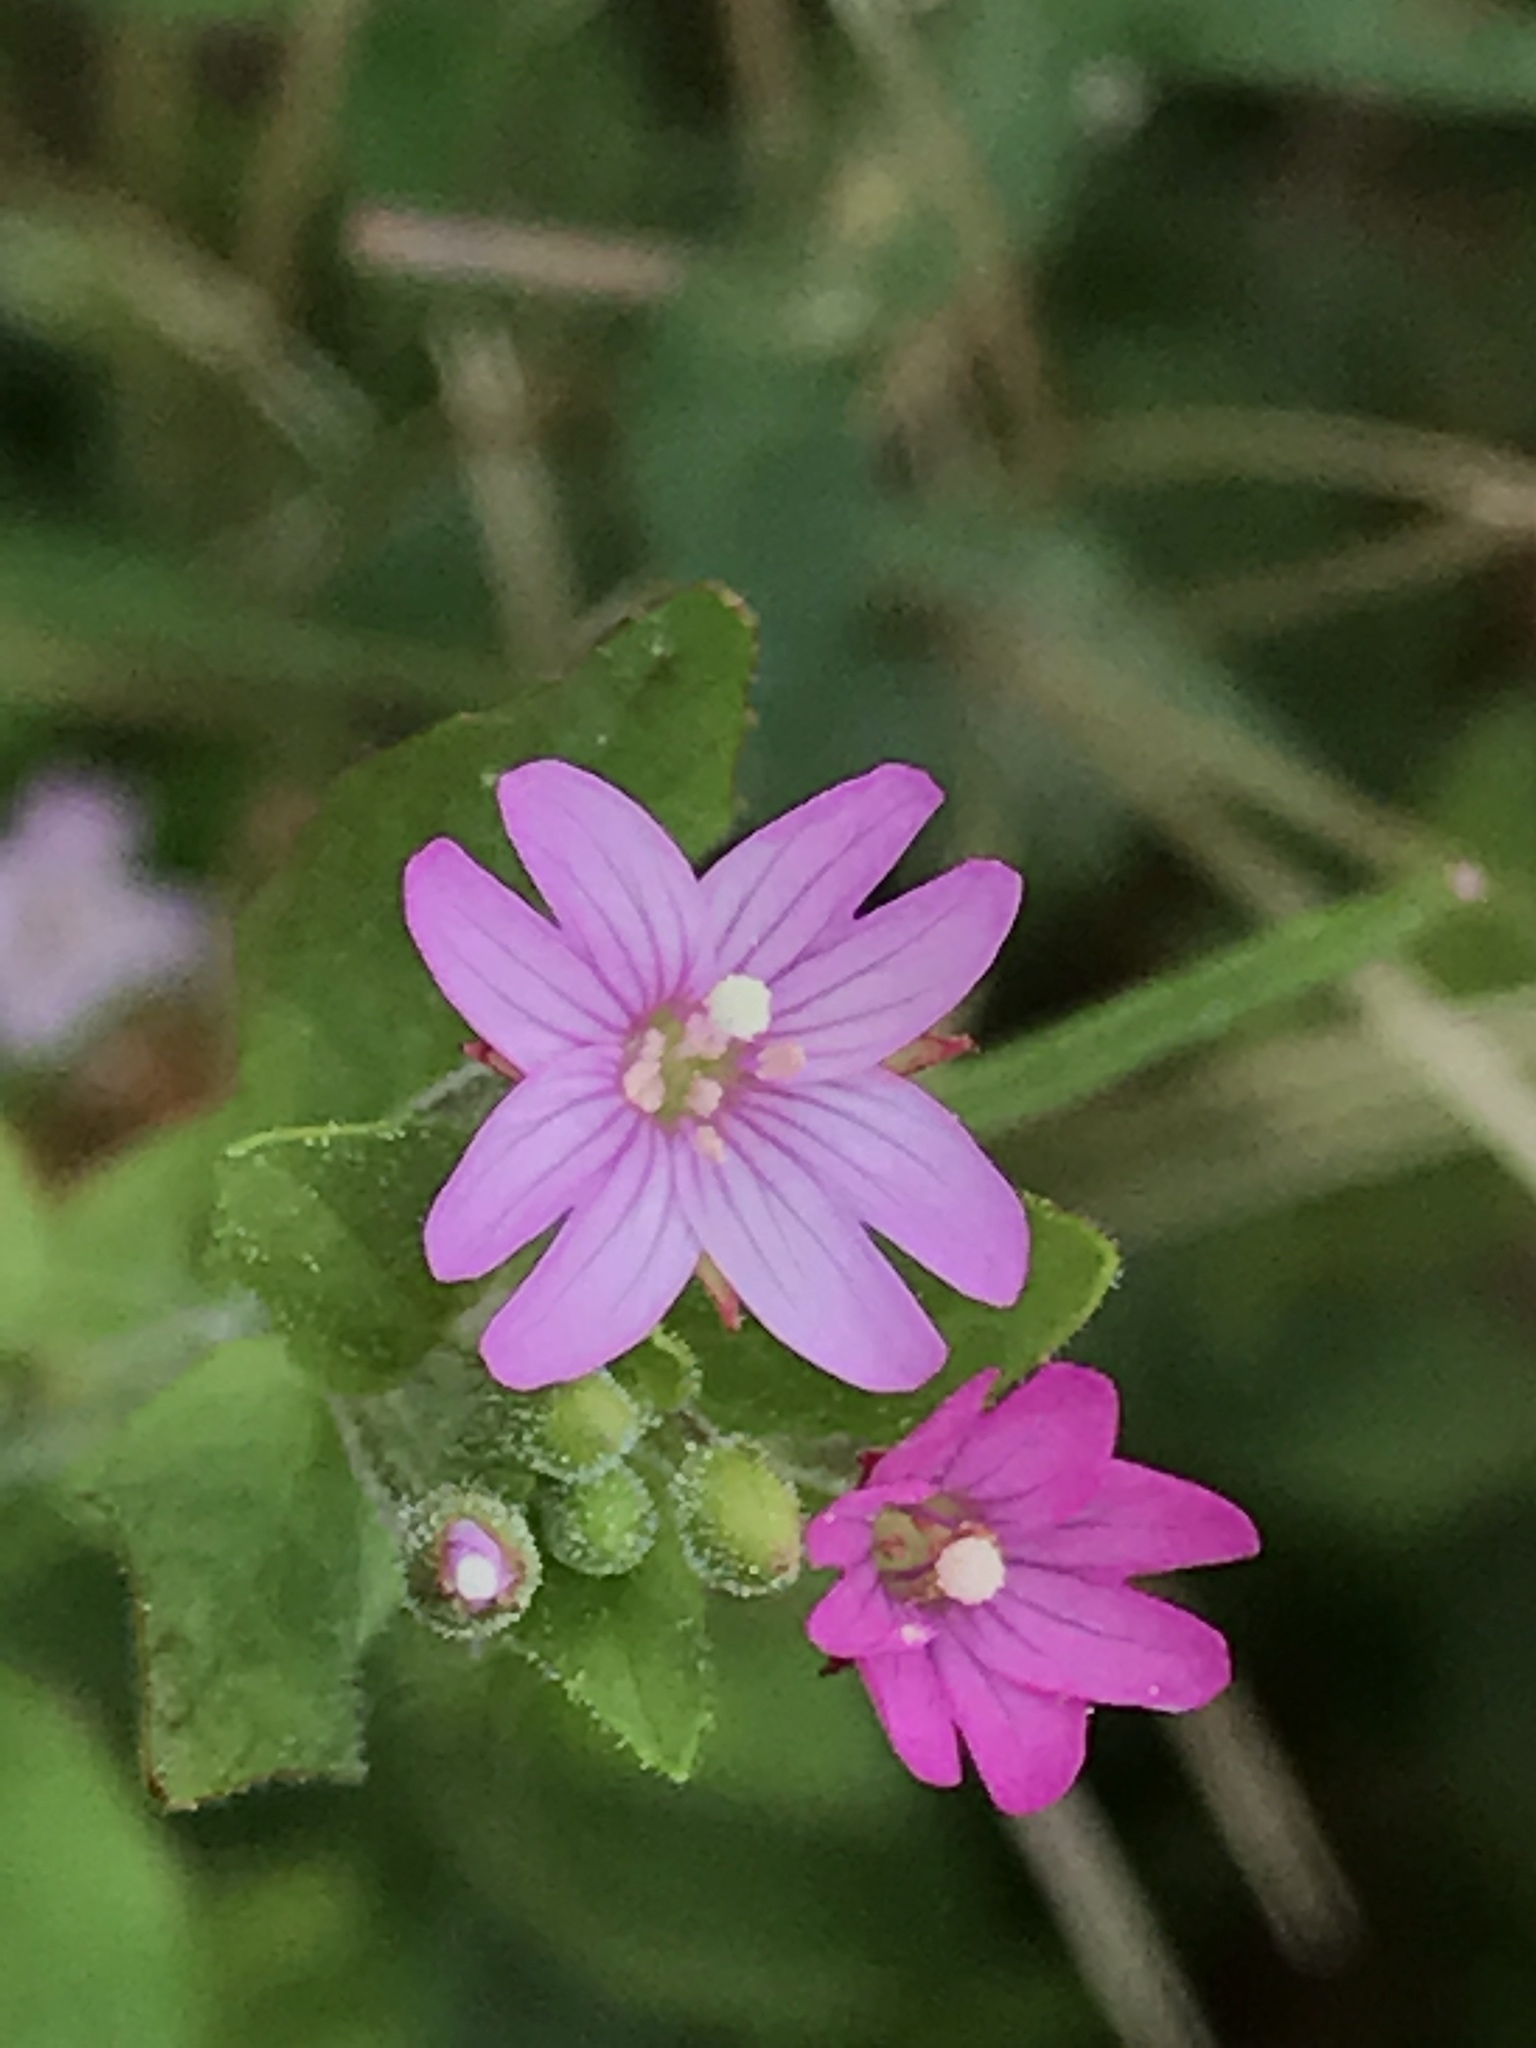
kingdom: Plantae
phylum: Tracheophyta
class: Magnoliopsida
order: Myrtales
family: Onagraceae
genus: Epilobium
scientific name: Epilobium ciliatum
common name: American willowherb
